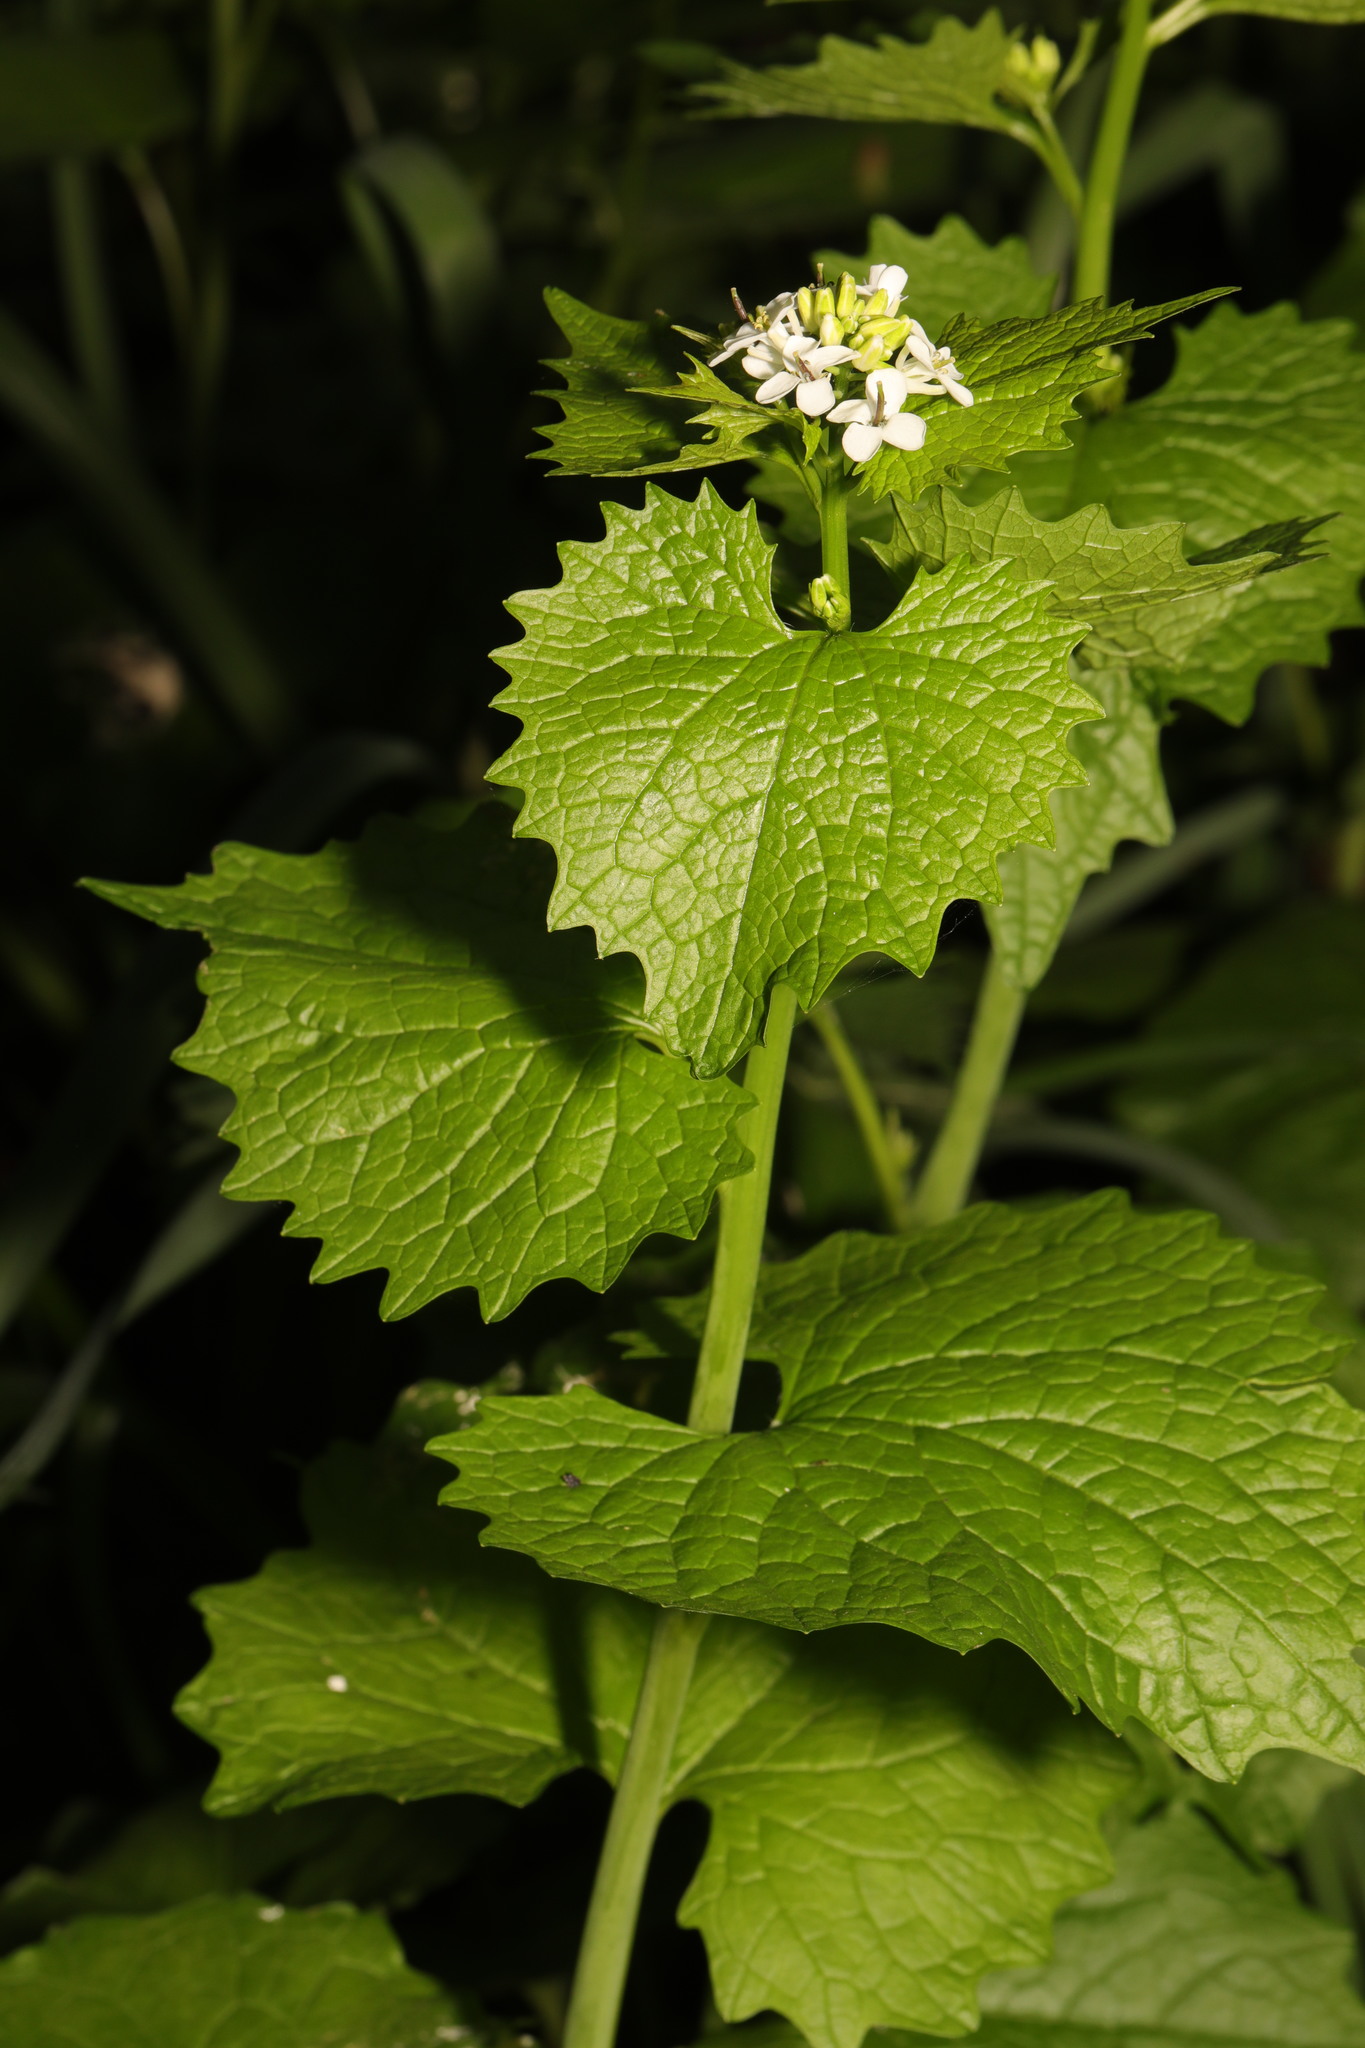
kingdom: Plantae
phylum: Tracheophyta
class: Magnoliopsida
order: Brassicales
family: Brassicaceae
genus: Alliaria
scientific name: Alliaria petiolata
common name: Garlic mustard
